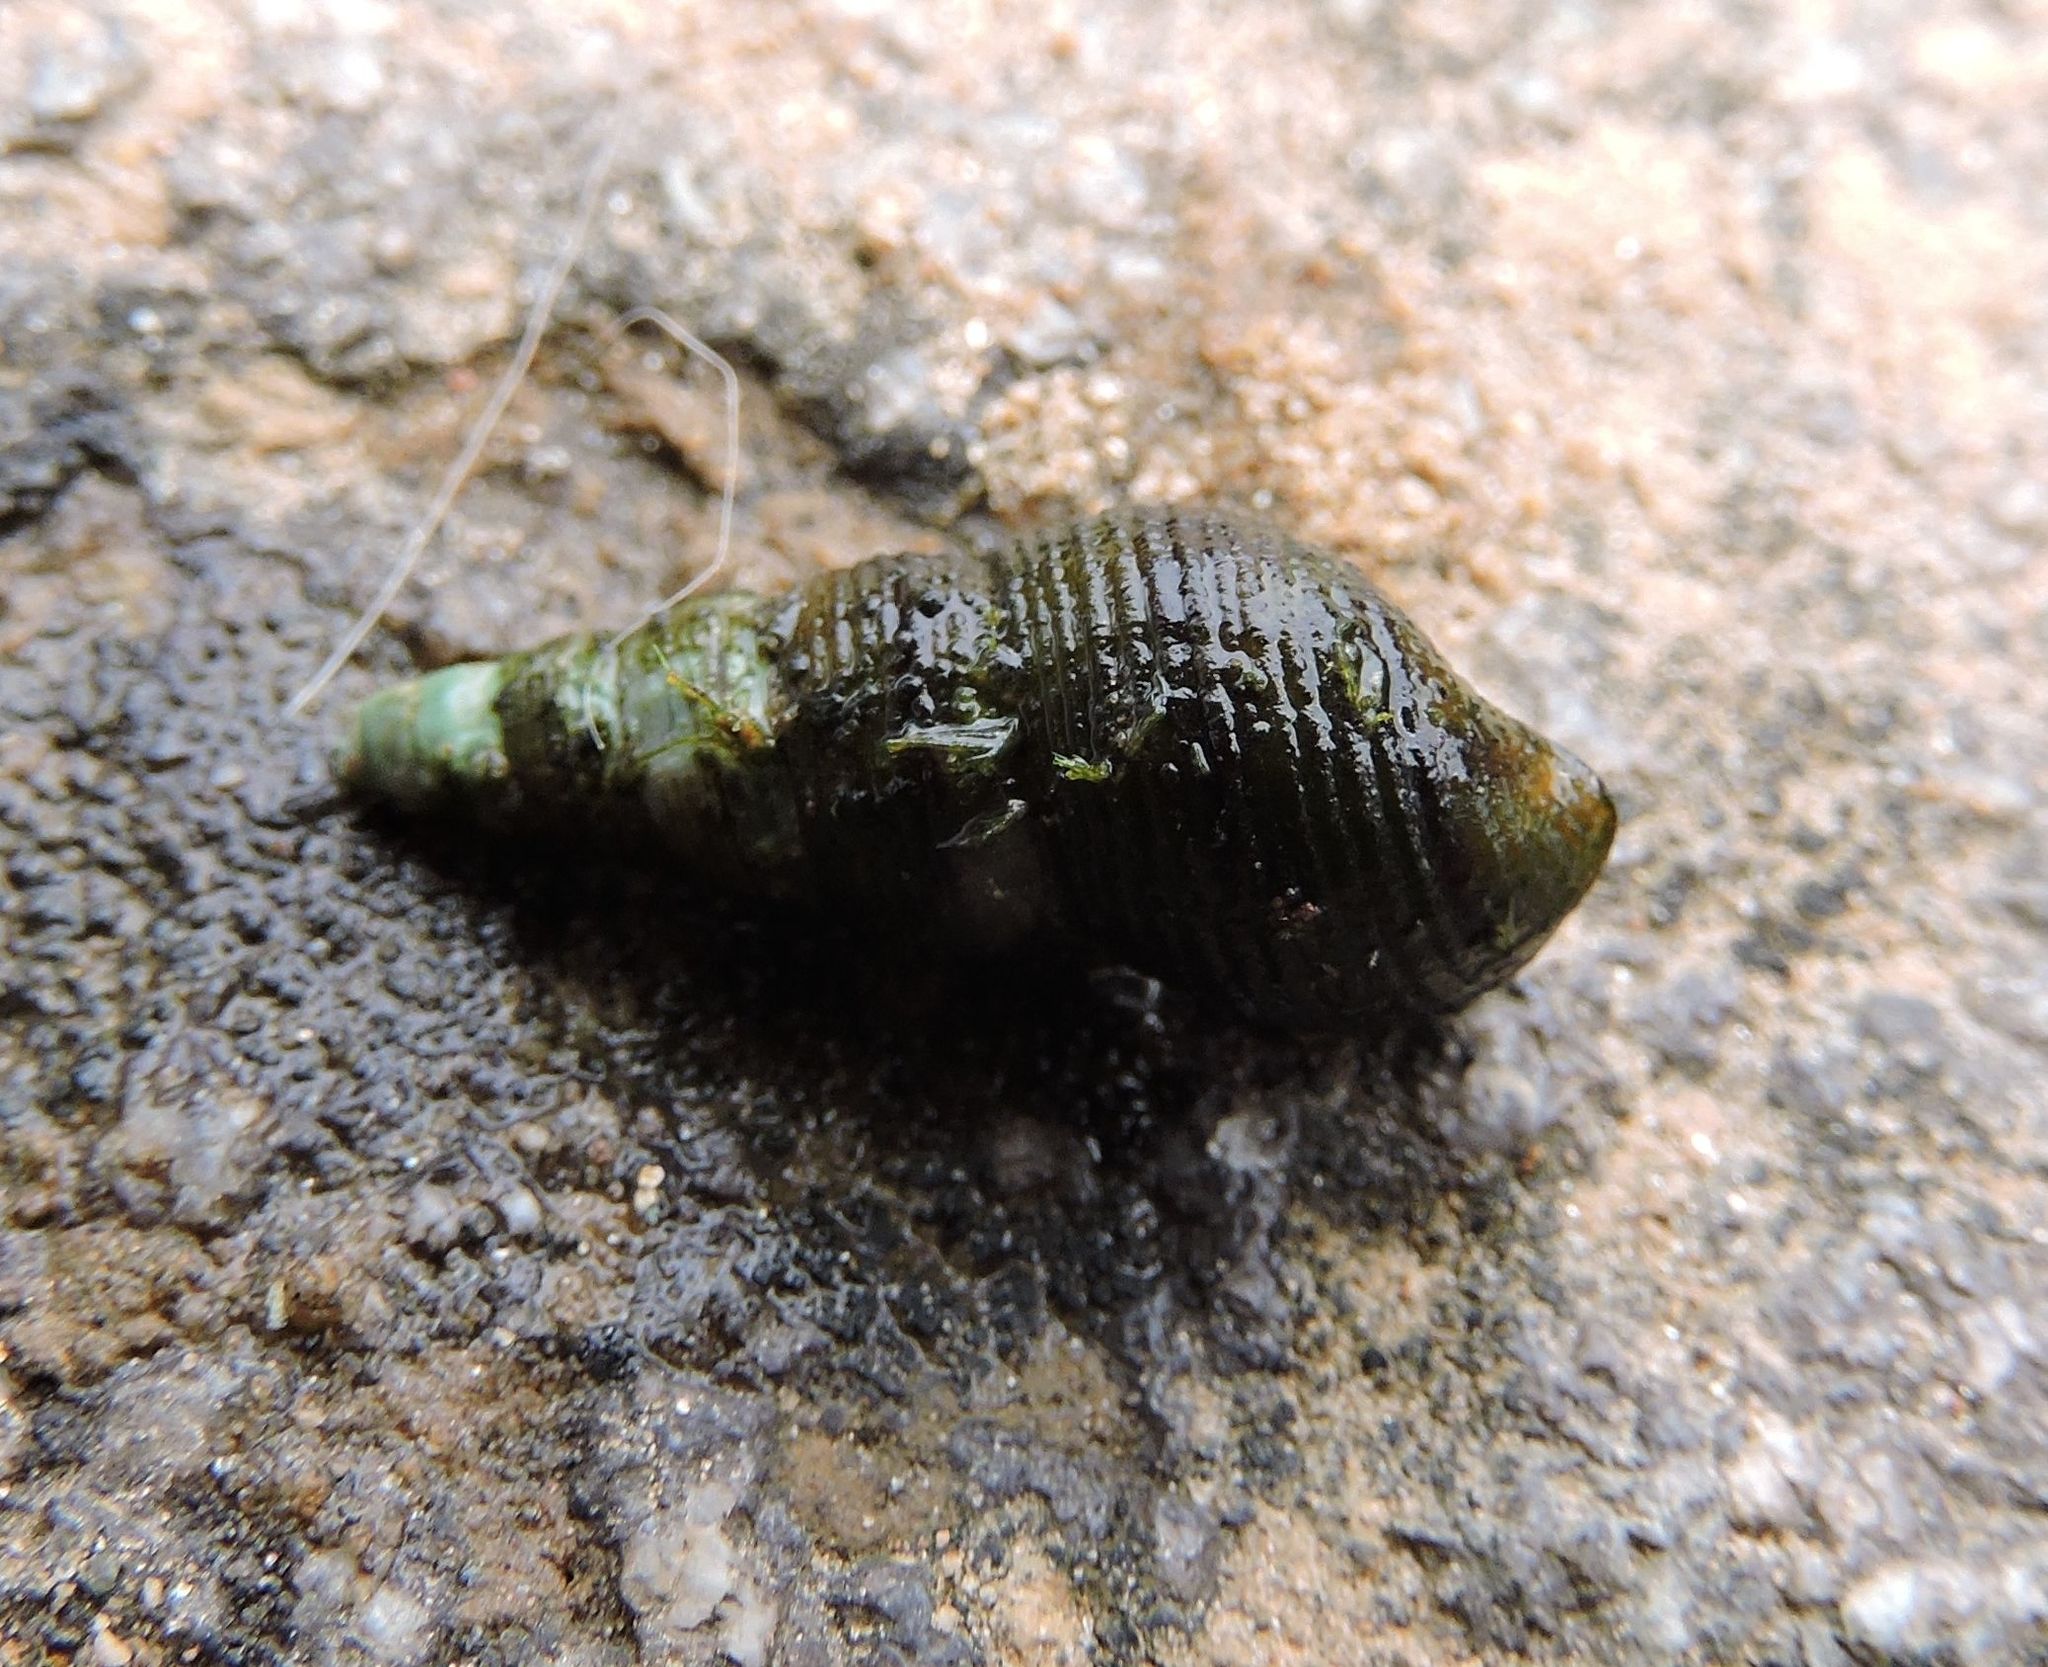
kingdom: Animalia
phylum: Mollusca
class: Gastropoda
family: Pleuroceridae
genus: Elimia
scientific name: Elimia virginica
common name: Piedmont elimia
